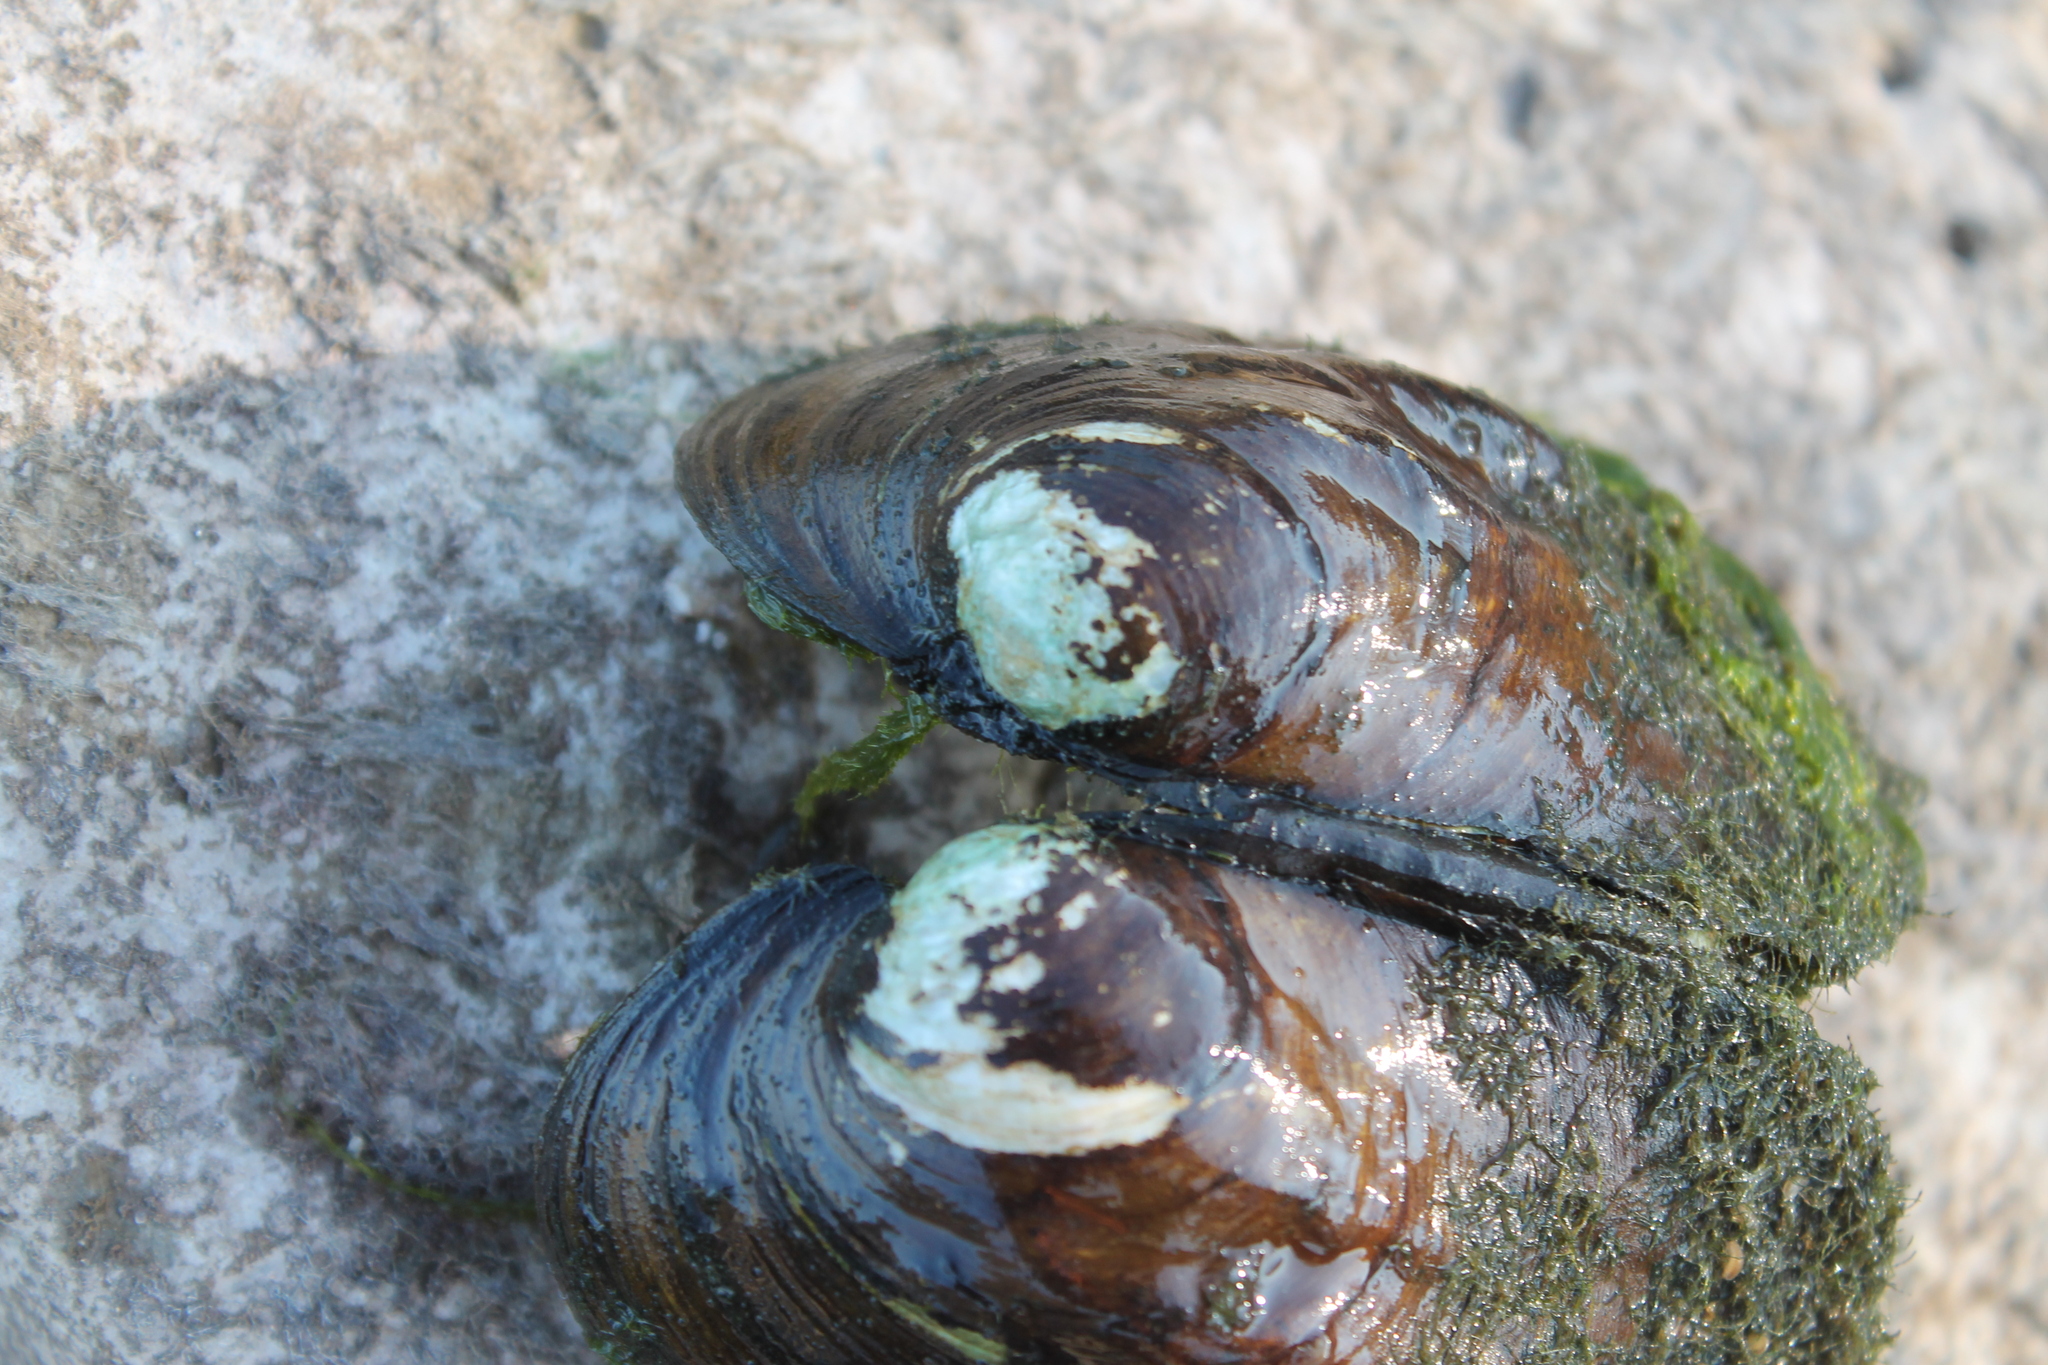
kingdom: Animalia
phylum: Mollusca
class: Bivalvia
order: Unionida
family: Unionidae
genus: Amblema
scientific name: Amblema plicata
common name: Threeridge
